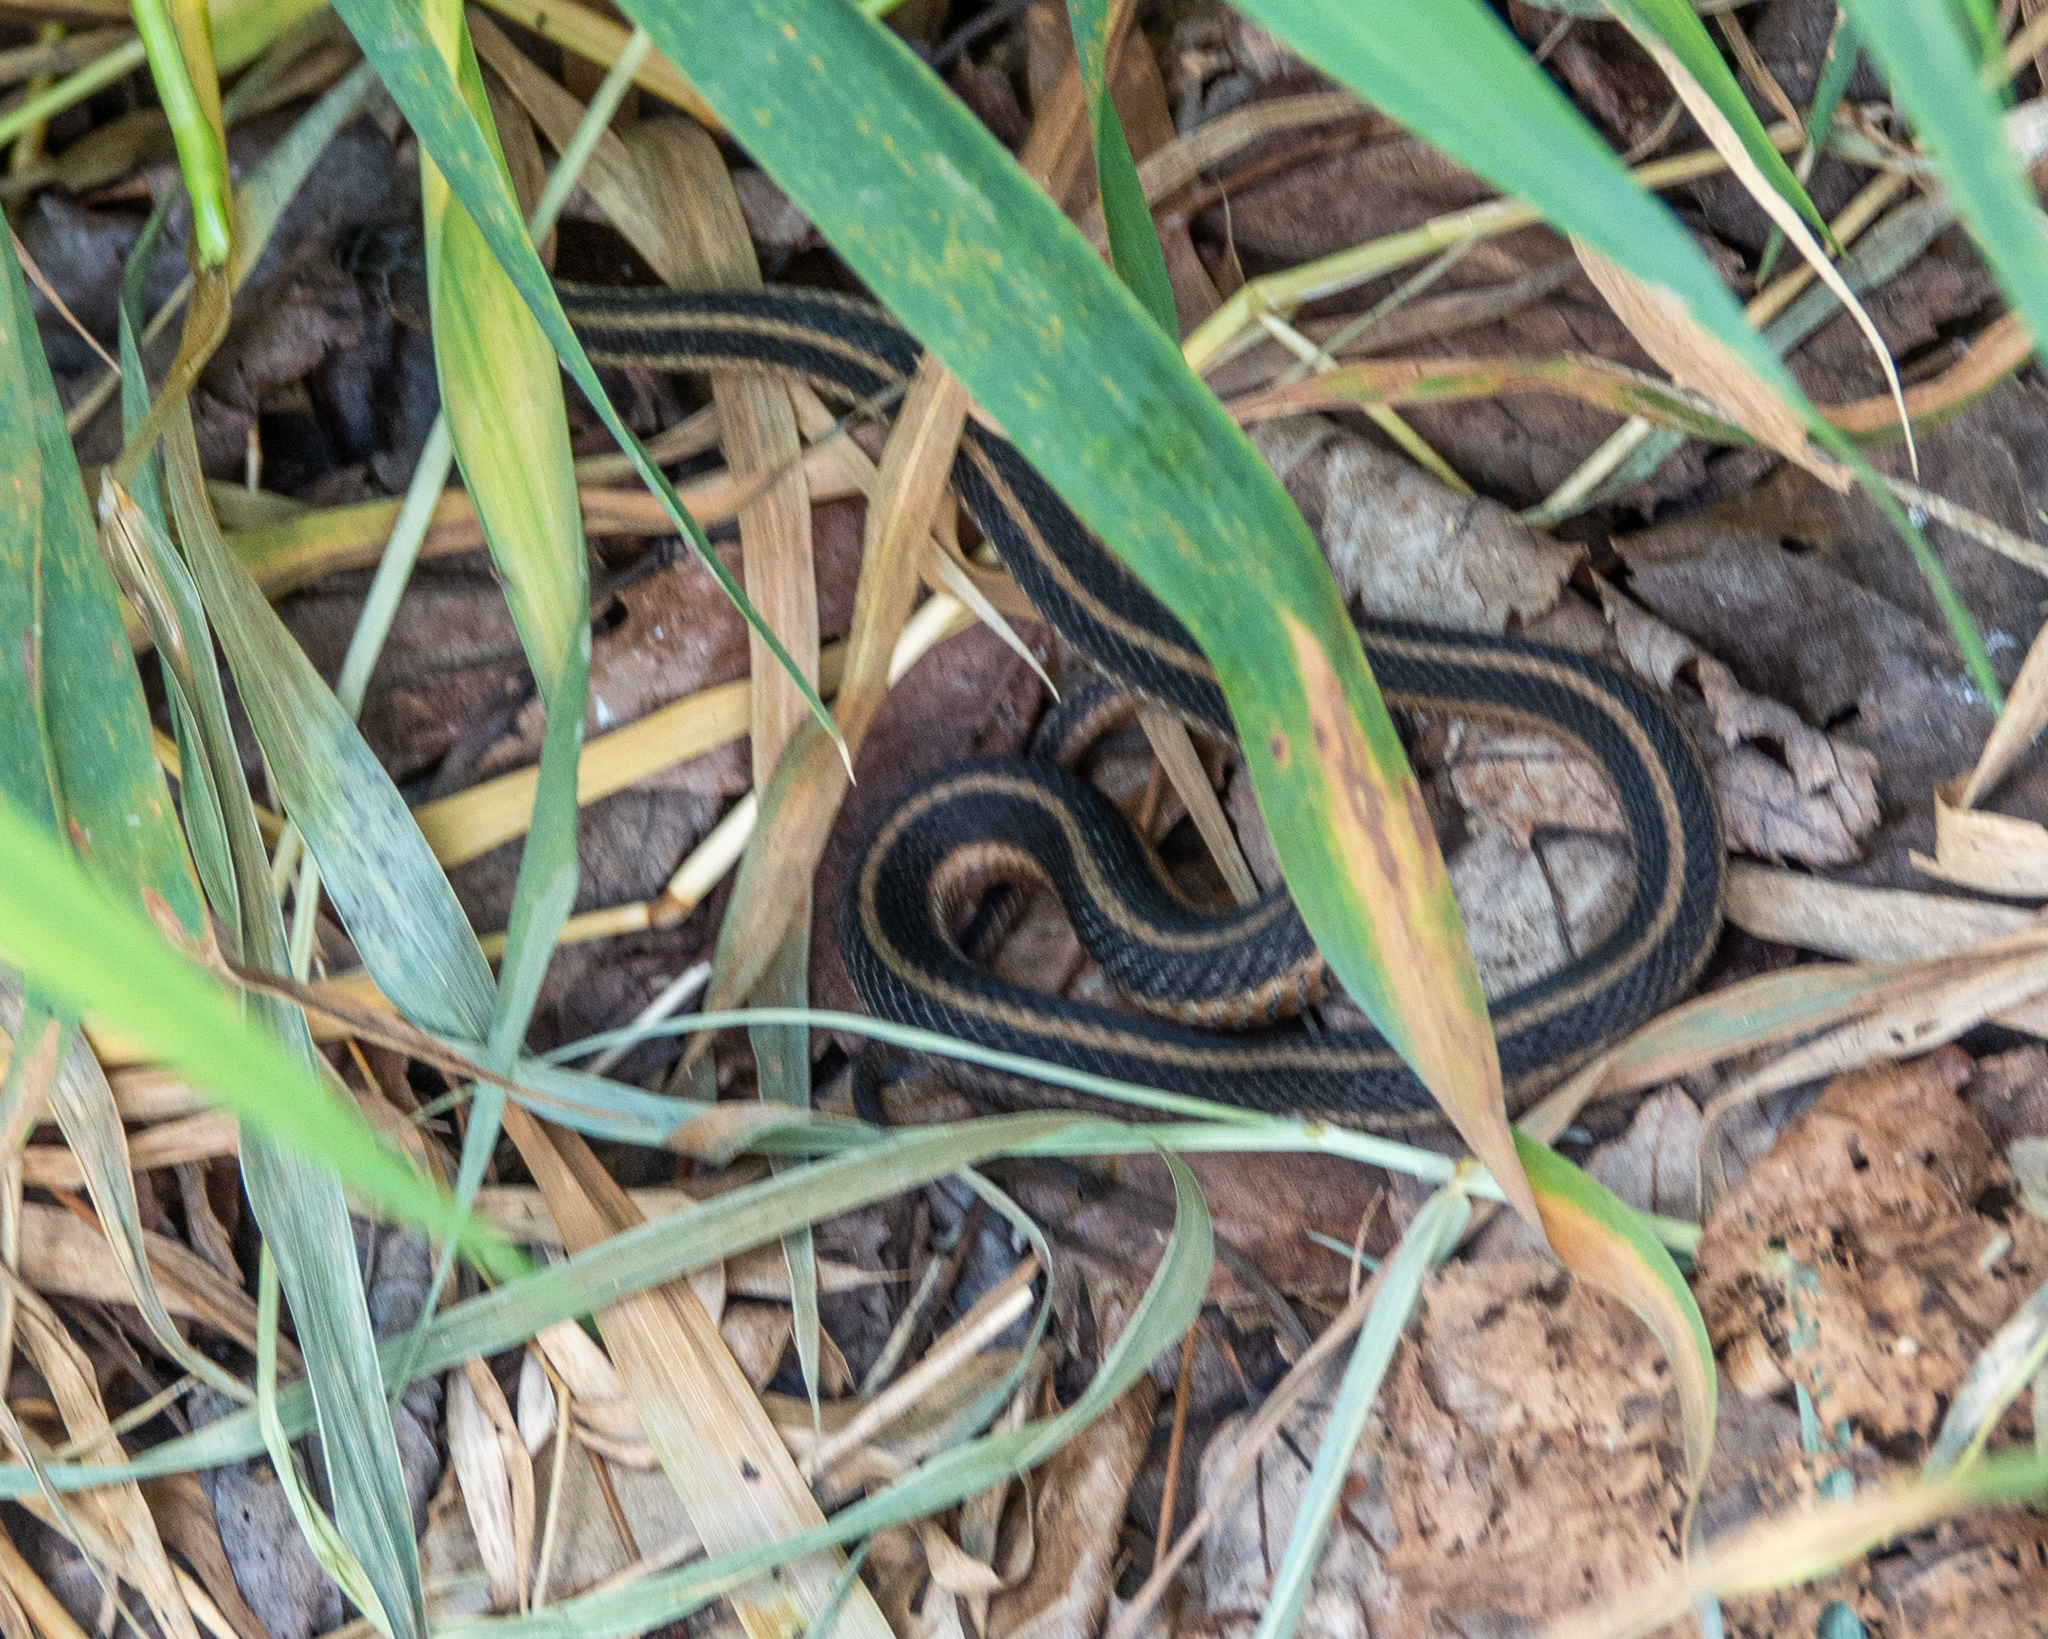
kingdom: Animalia
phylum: Chordata
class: Squamata
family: Colubridae
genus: Thamnophis
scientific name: Thamnophis sirtalis
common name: Common garter snake
